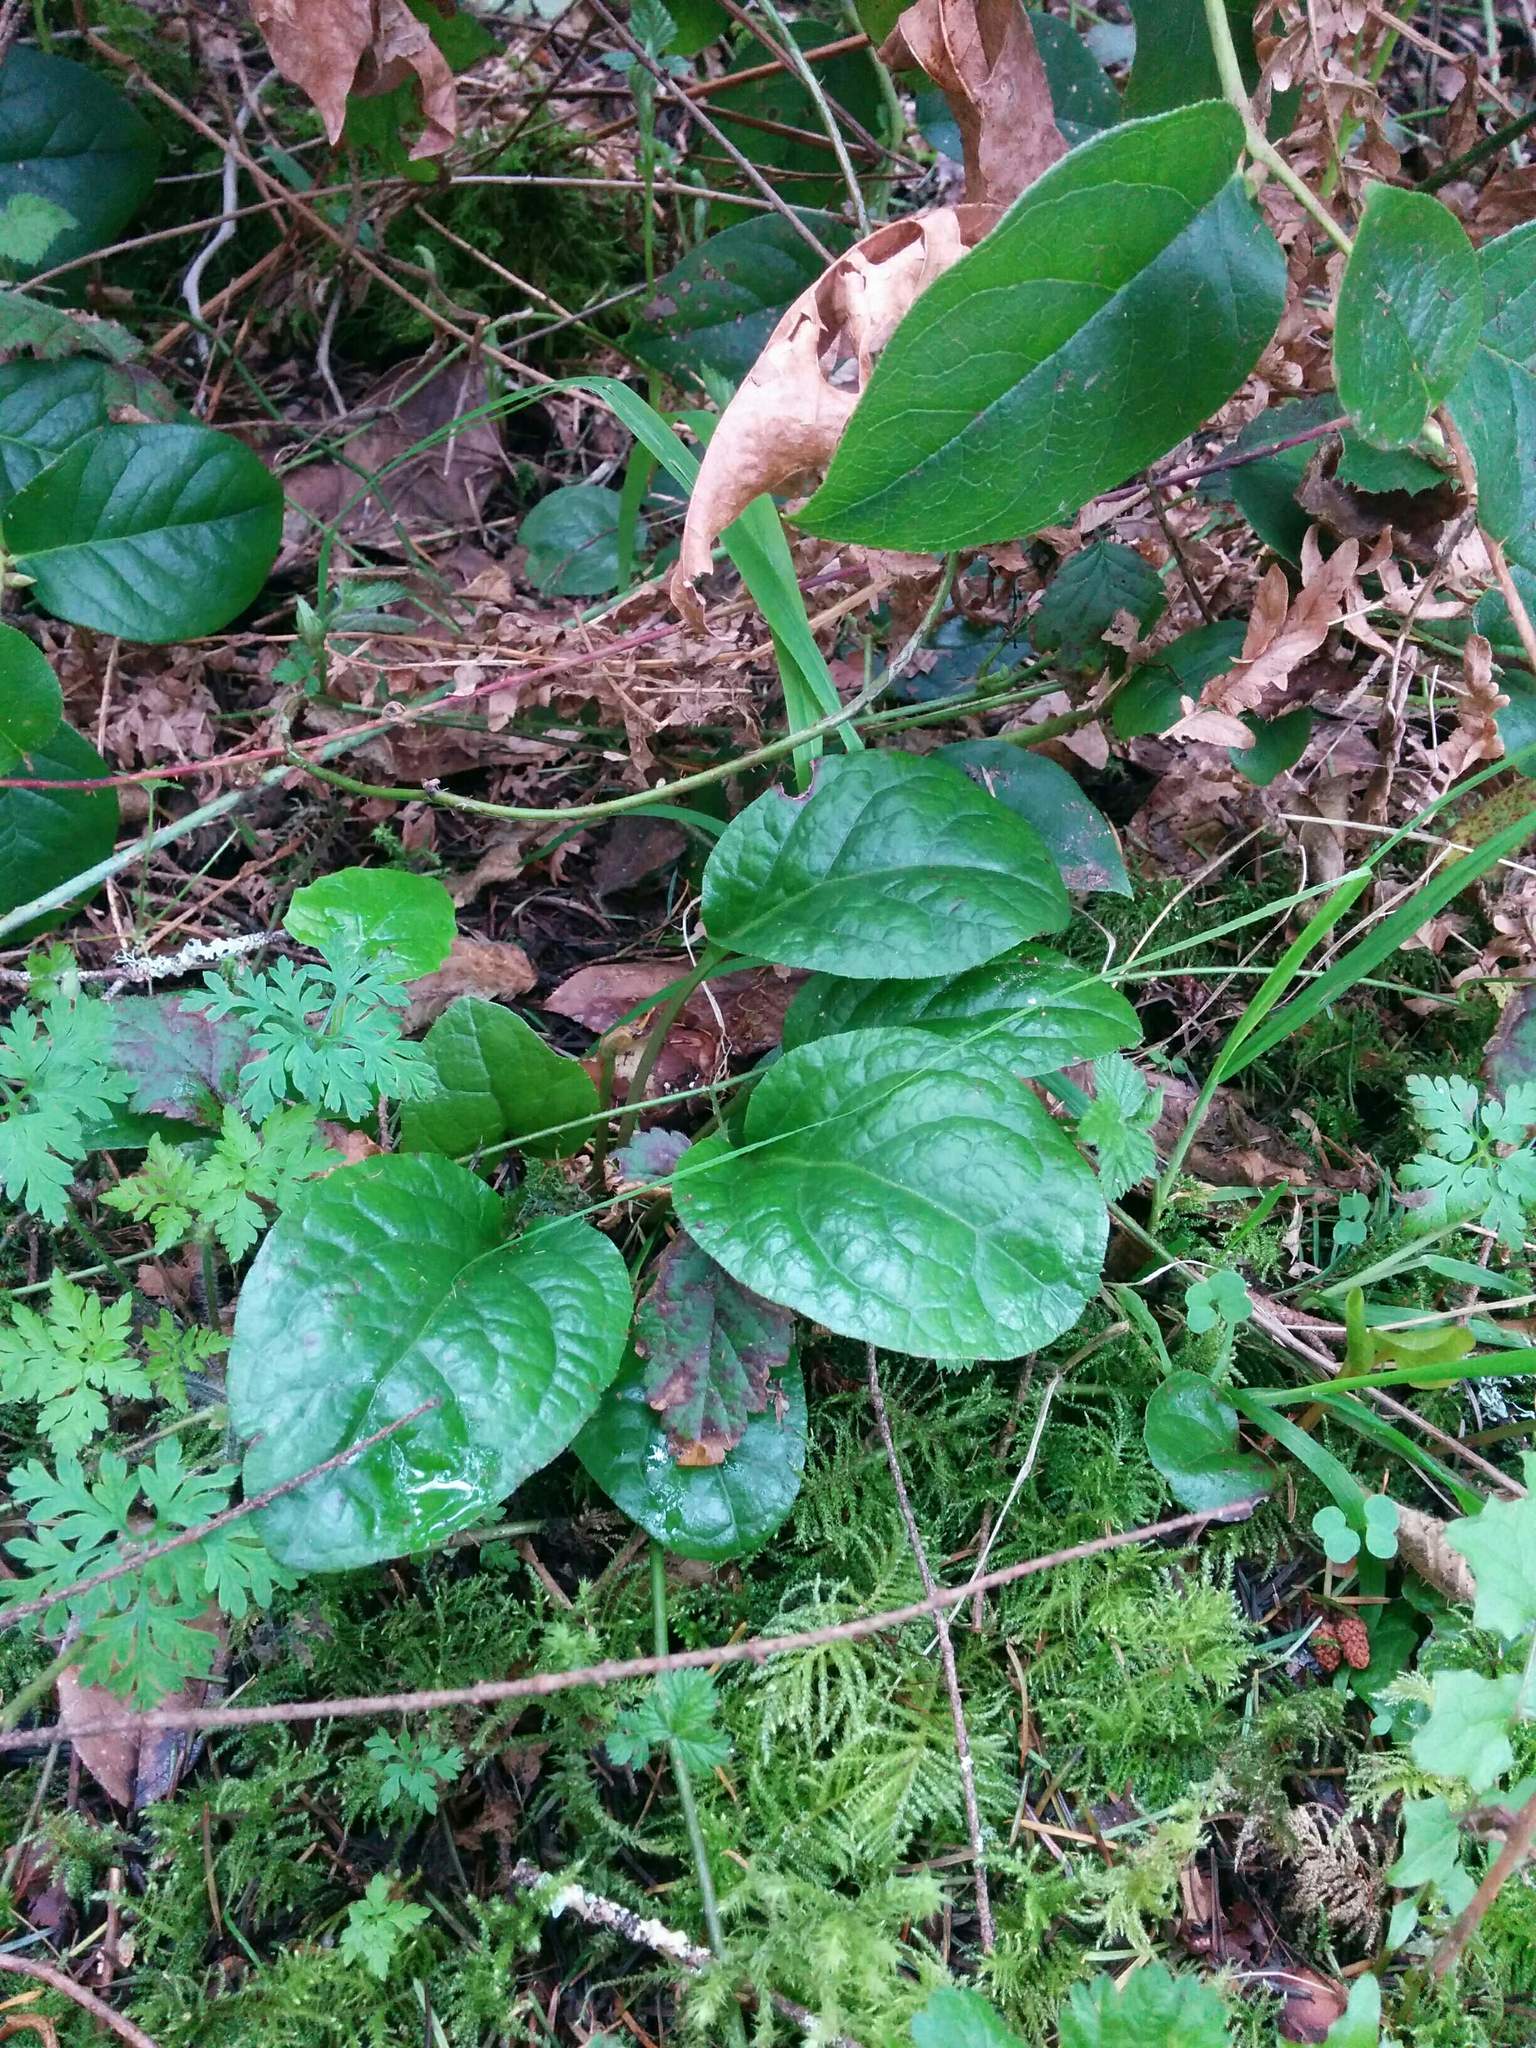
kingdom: Plantae
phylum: Tracheophyta
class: Magnoliopsida
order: Ericales
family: Ericaceae
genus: Pyrola
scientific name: Pyrola asarifolia
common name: Bog wintergreen
